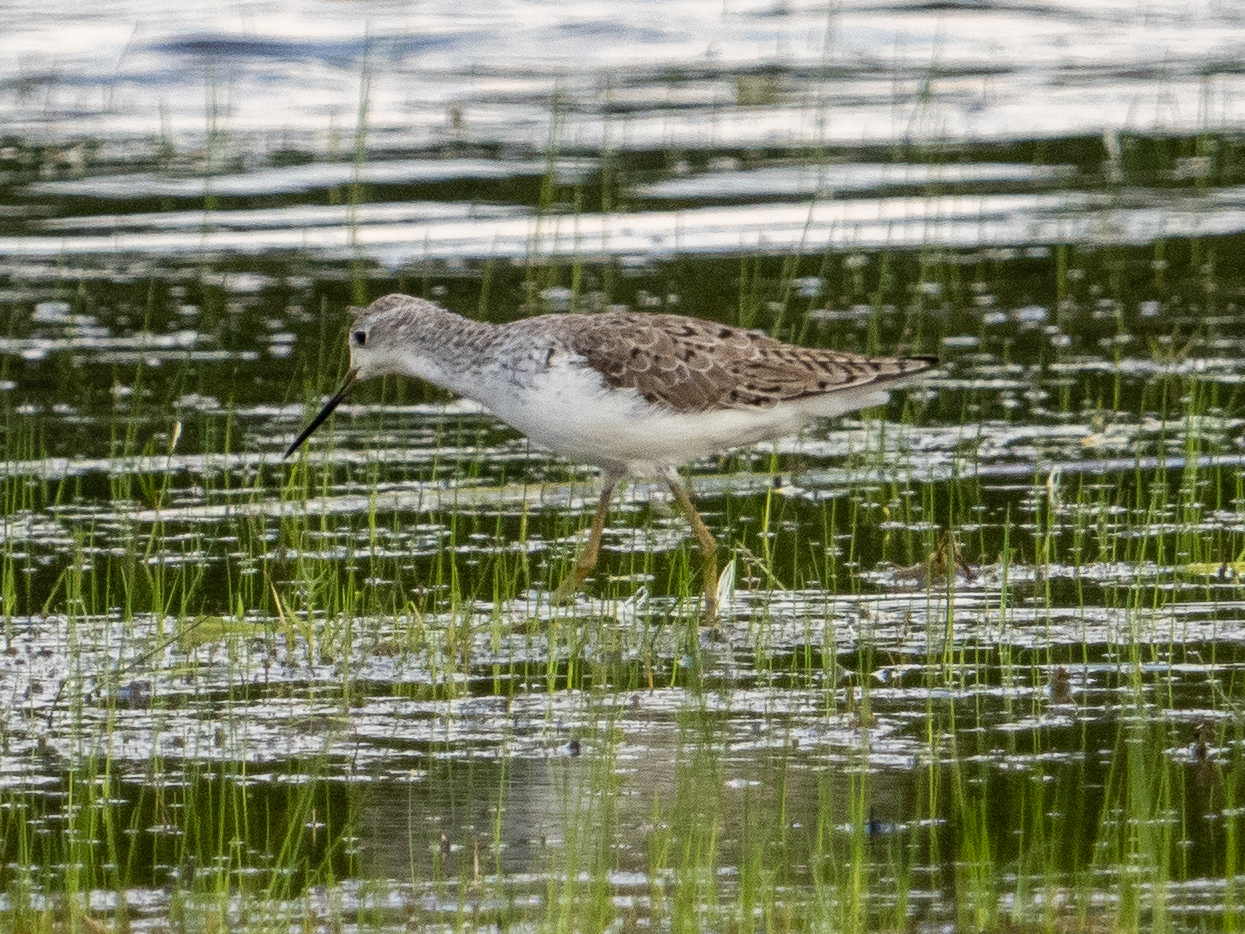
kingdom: Animalia
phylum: Chordata
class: Aves
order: Charadriiformes
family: Scolopacidae
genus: Tringa
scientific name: Tringa stagnatilis
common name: Marsh sandpiper
